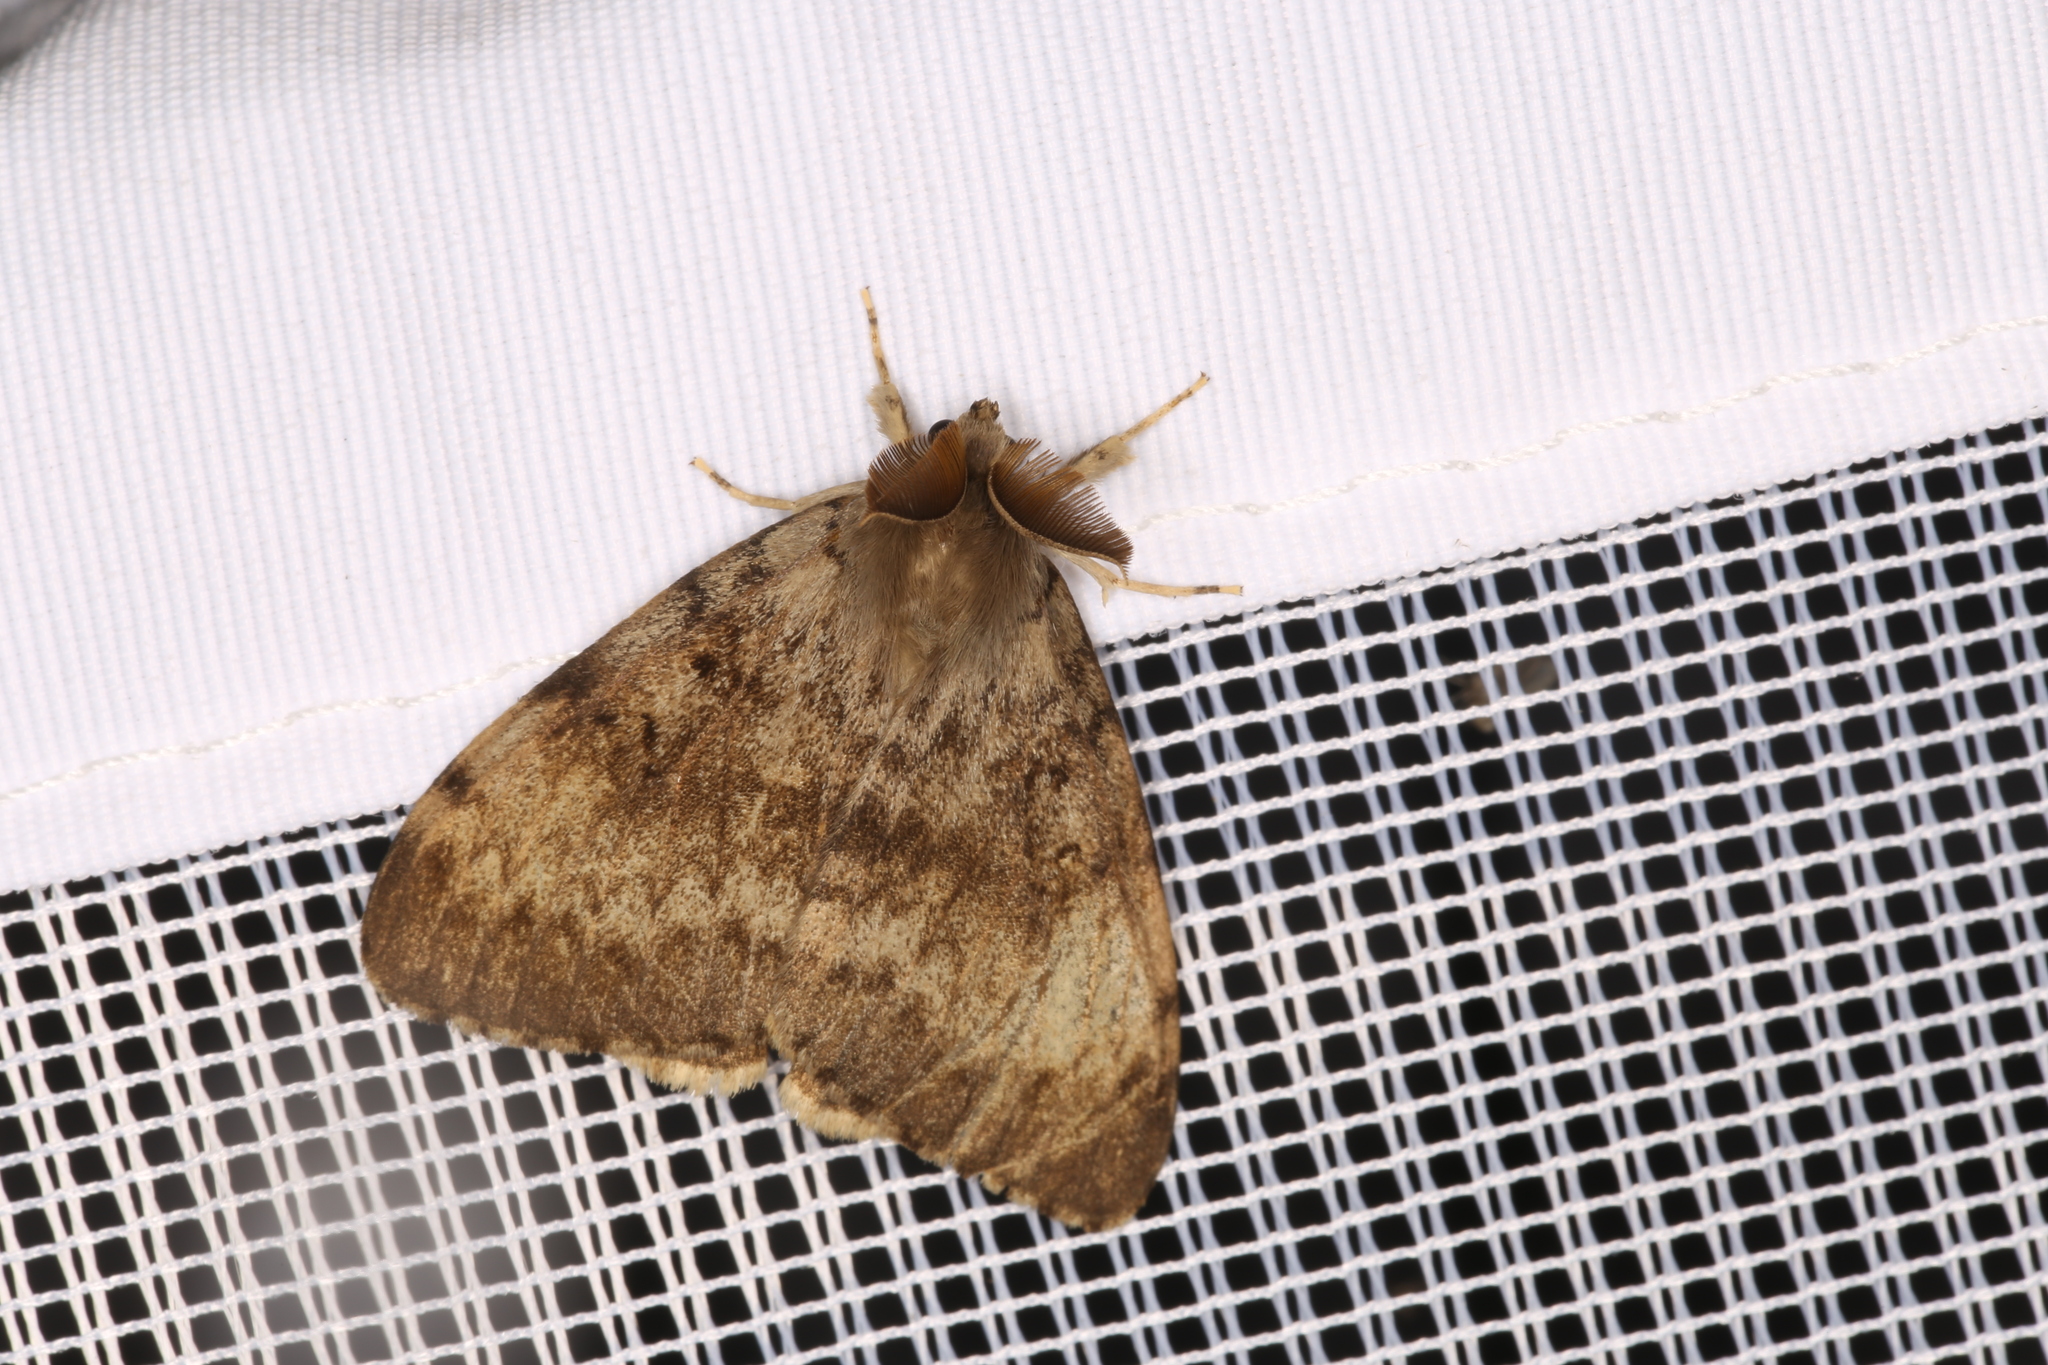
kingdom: Animalia
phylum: Arthropoda
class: Insecta
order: Lepidoptera
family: Erebidae
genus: Lymantria
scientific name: Lymantria dispar
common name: Gypsy moth
